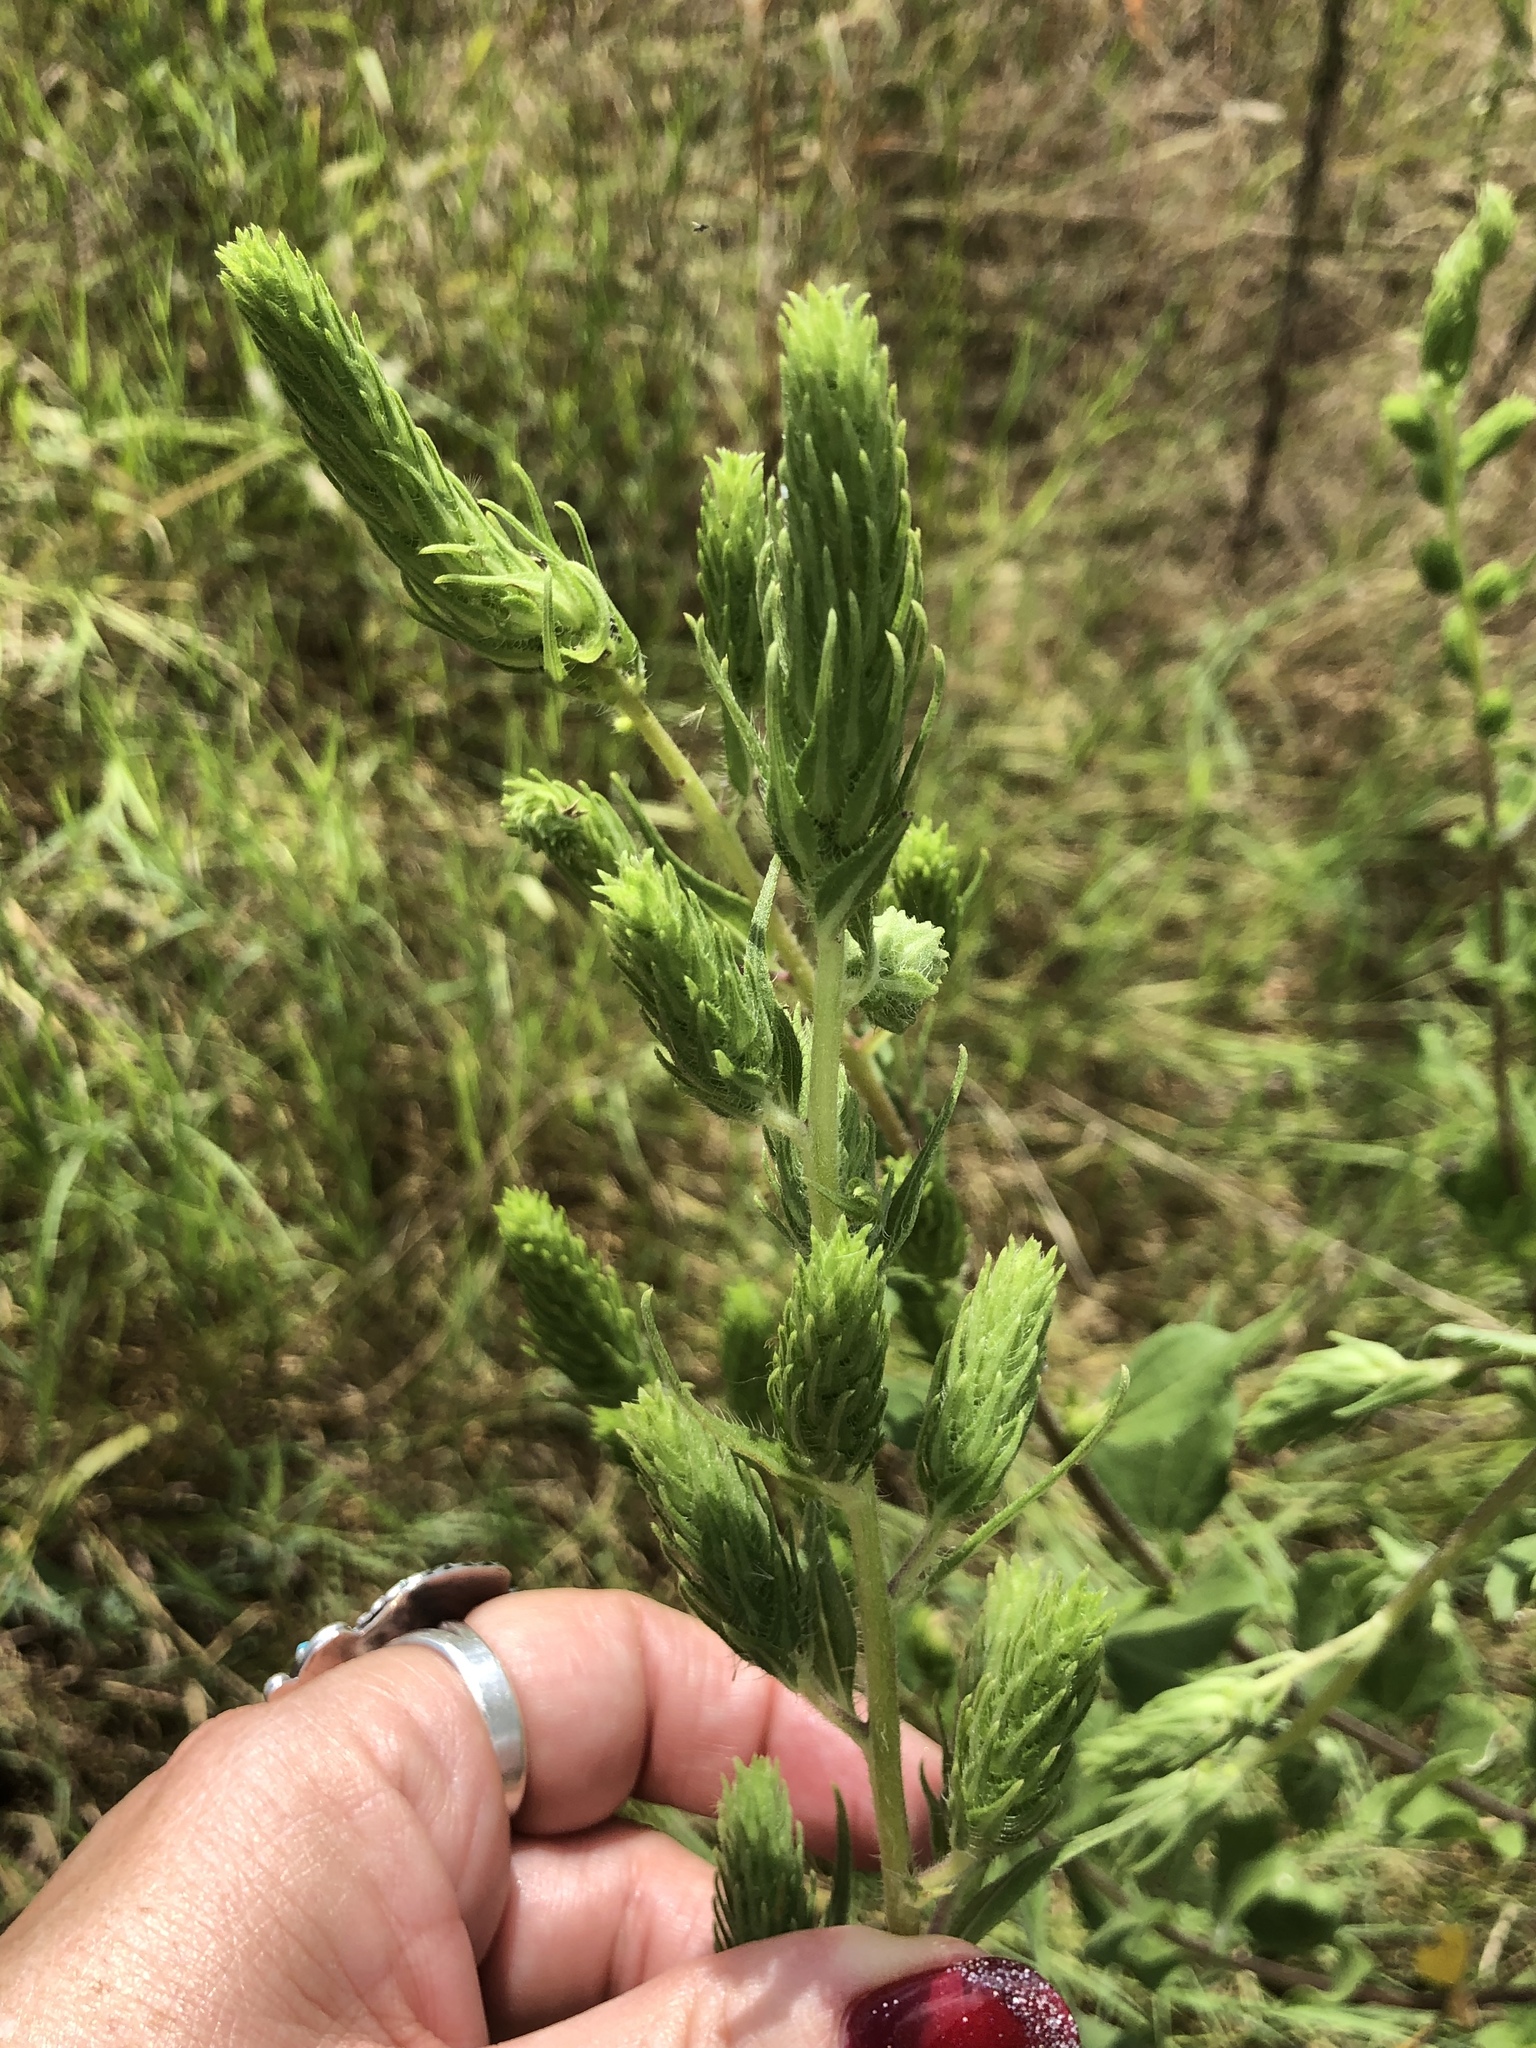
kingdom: Plantae
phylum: Tracheophyta
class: Magnoliopsida
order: Asterales
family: Asteraceae
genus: Iva
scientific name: Iva annua
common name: Marsh-elder
